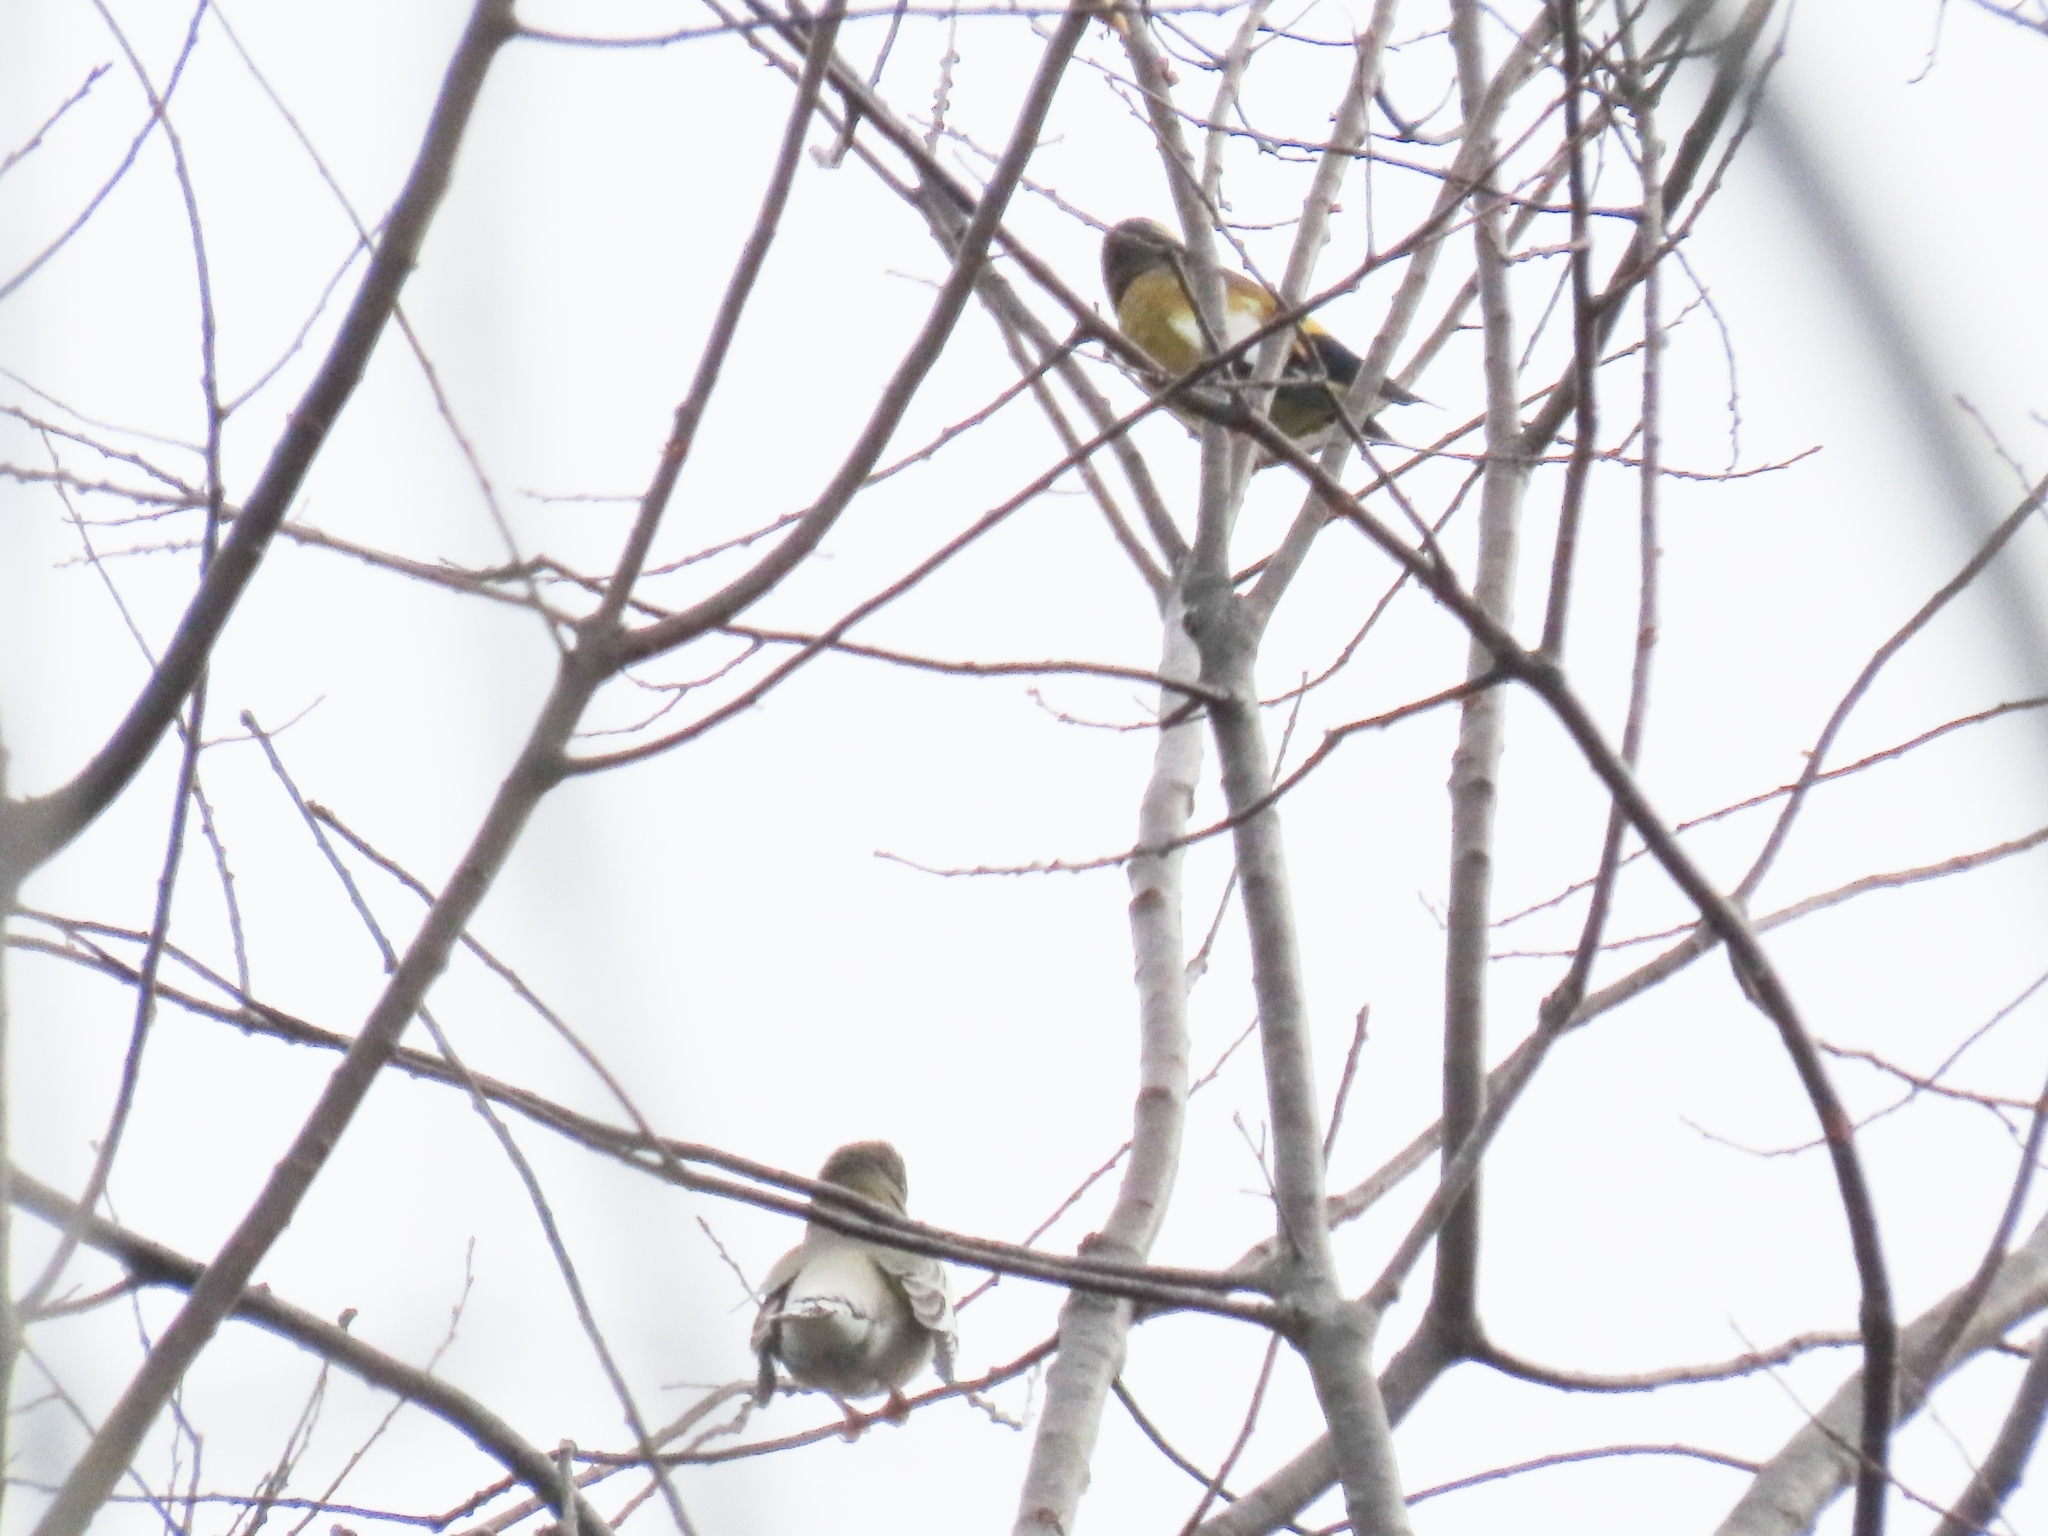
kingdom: Animalia
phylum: Chordata
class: Aves
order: Passeriformes
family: Fringillidae
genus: Hesperiphona
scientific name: Hesperiphona vespertina
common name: Evening grosbeak
